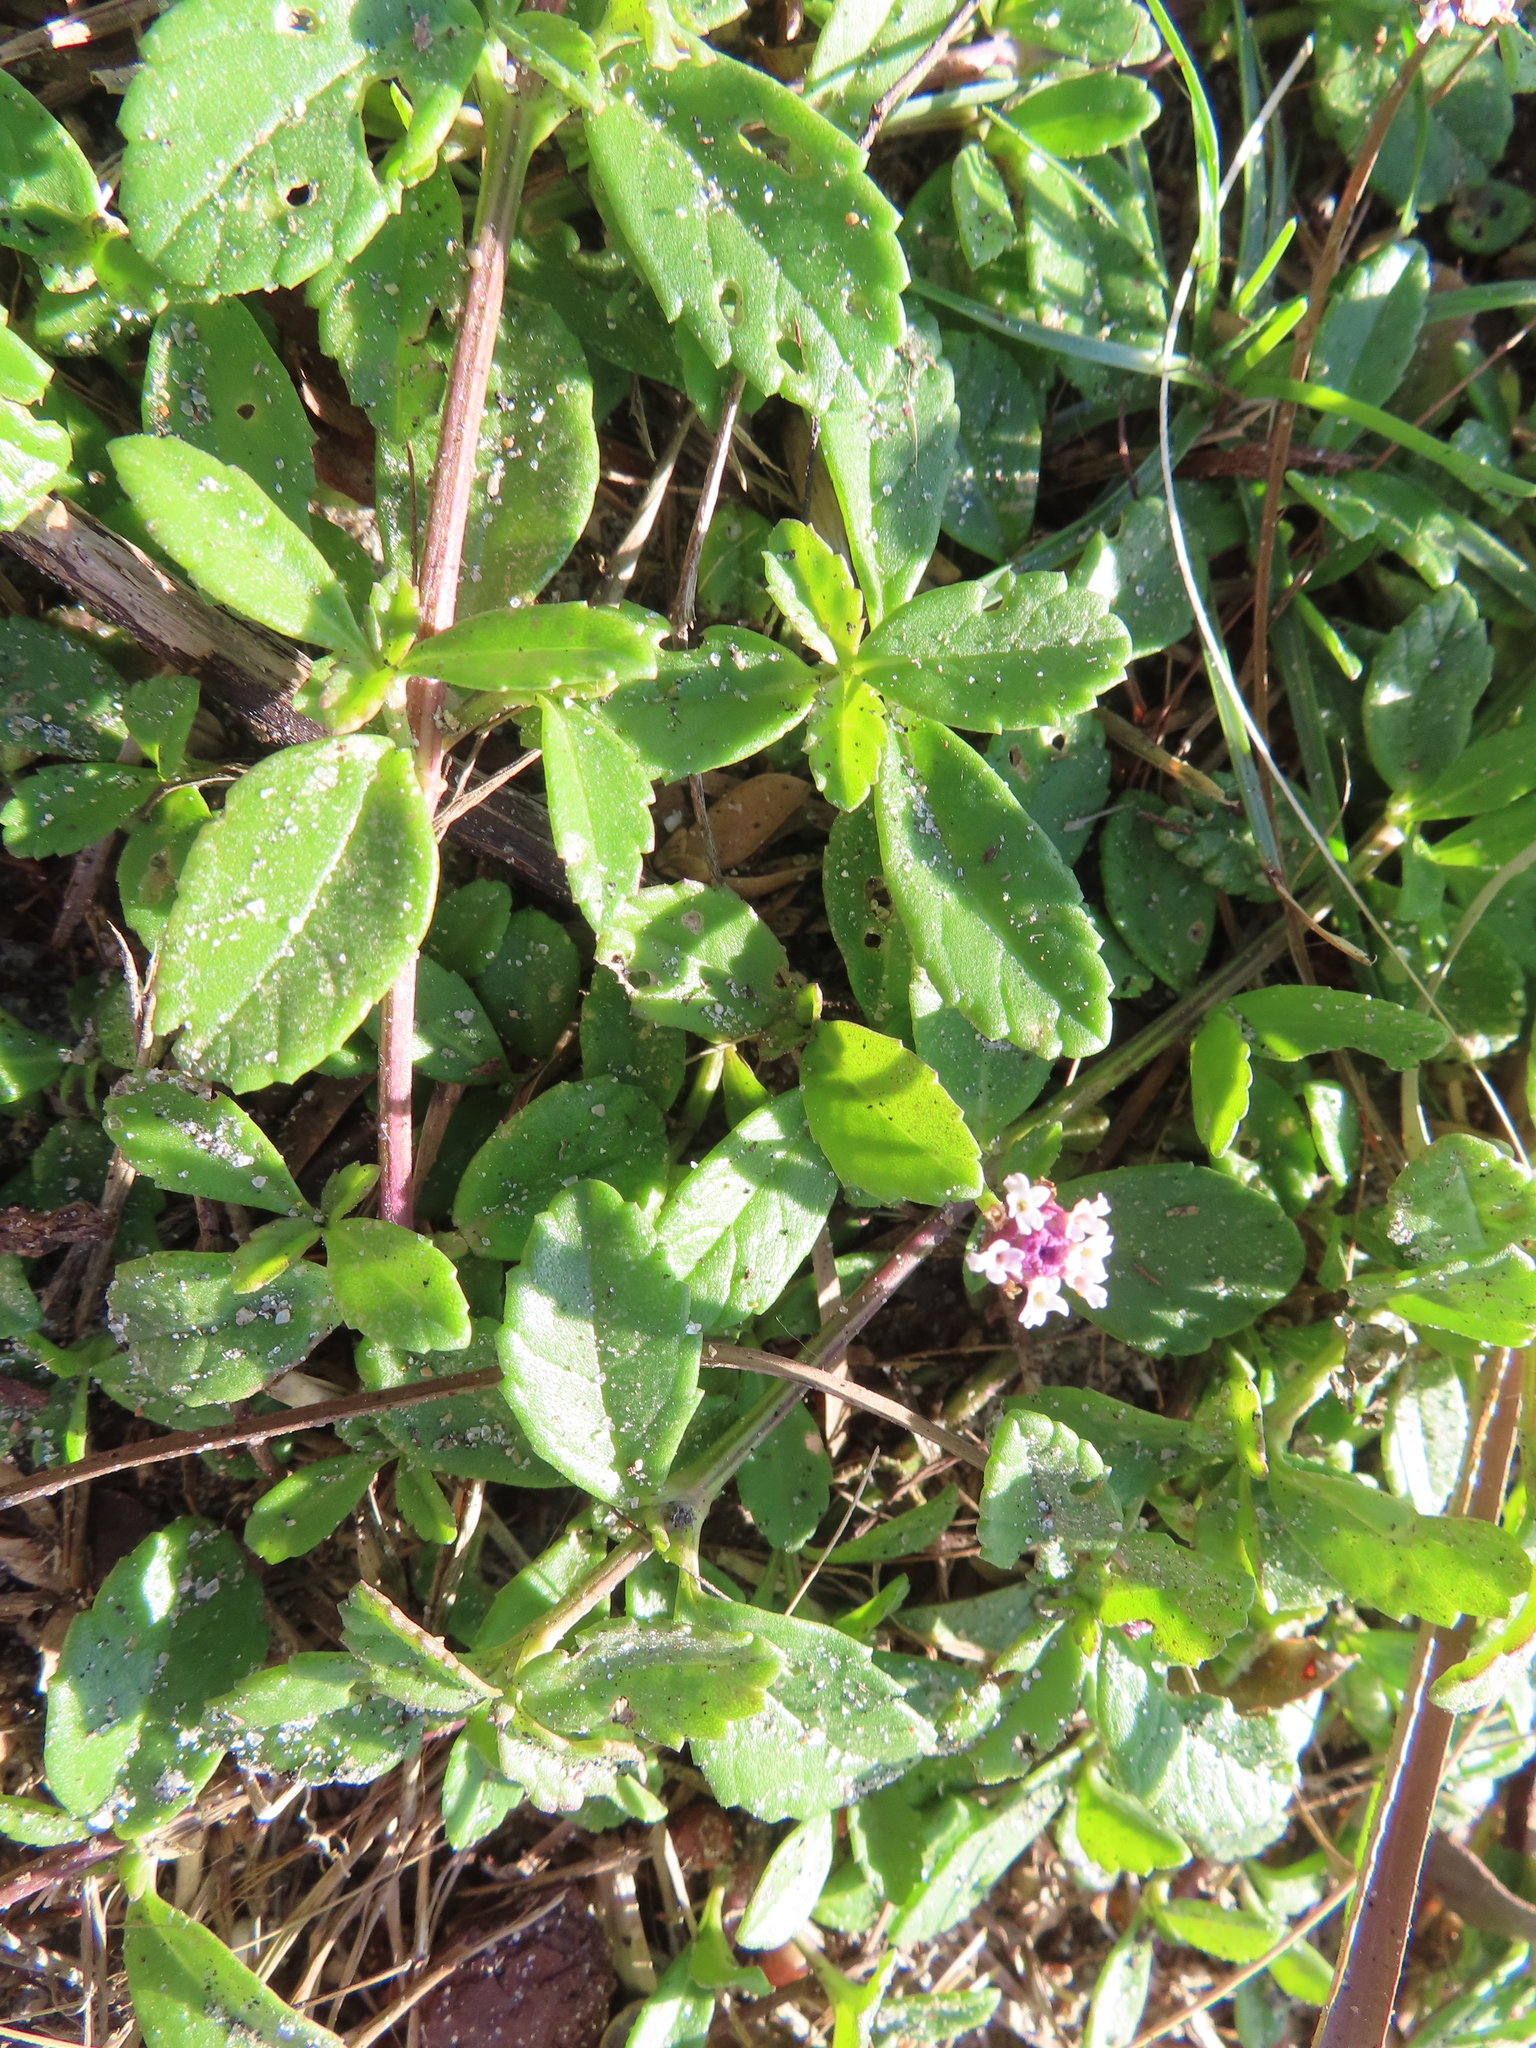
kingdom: Plantae
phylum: Tracheophyta
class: Magnoliopsida
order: Lamiales
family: Verbenaceae
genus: Phyla
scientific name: Phyla nodiflora
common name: Frogfruit
